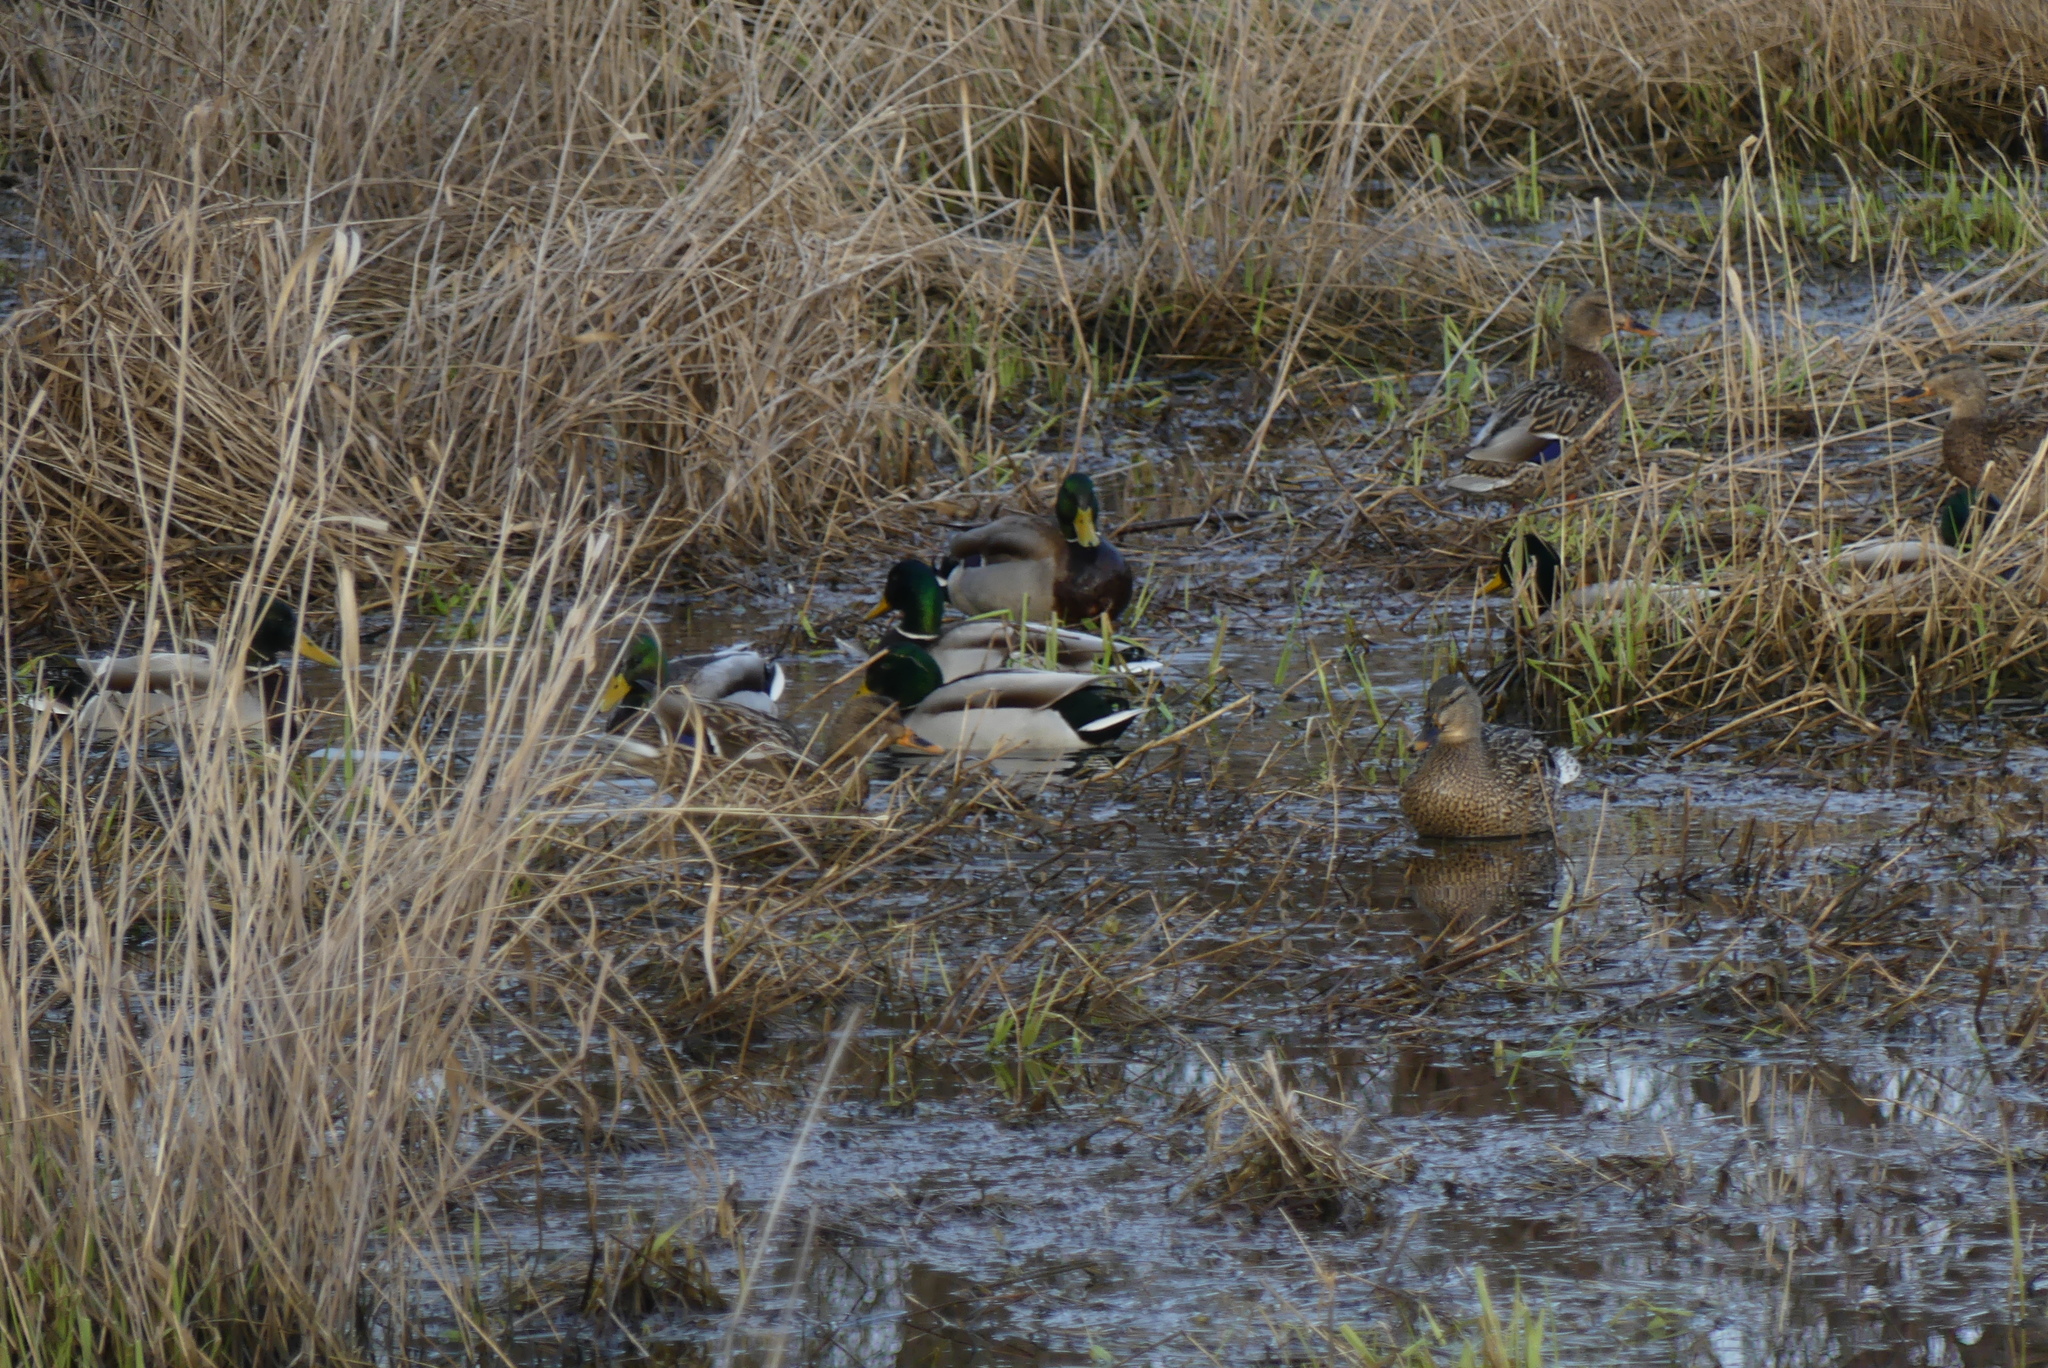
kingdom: Animalia
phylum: Chordata
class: Aves
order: Anseriformes
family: Anatidae
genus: Anas
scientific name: Anas platyrhynchos
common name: Mallard
